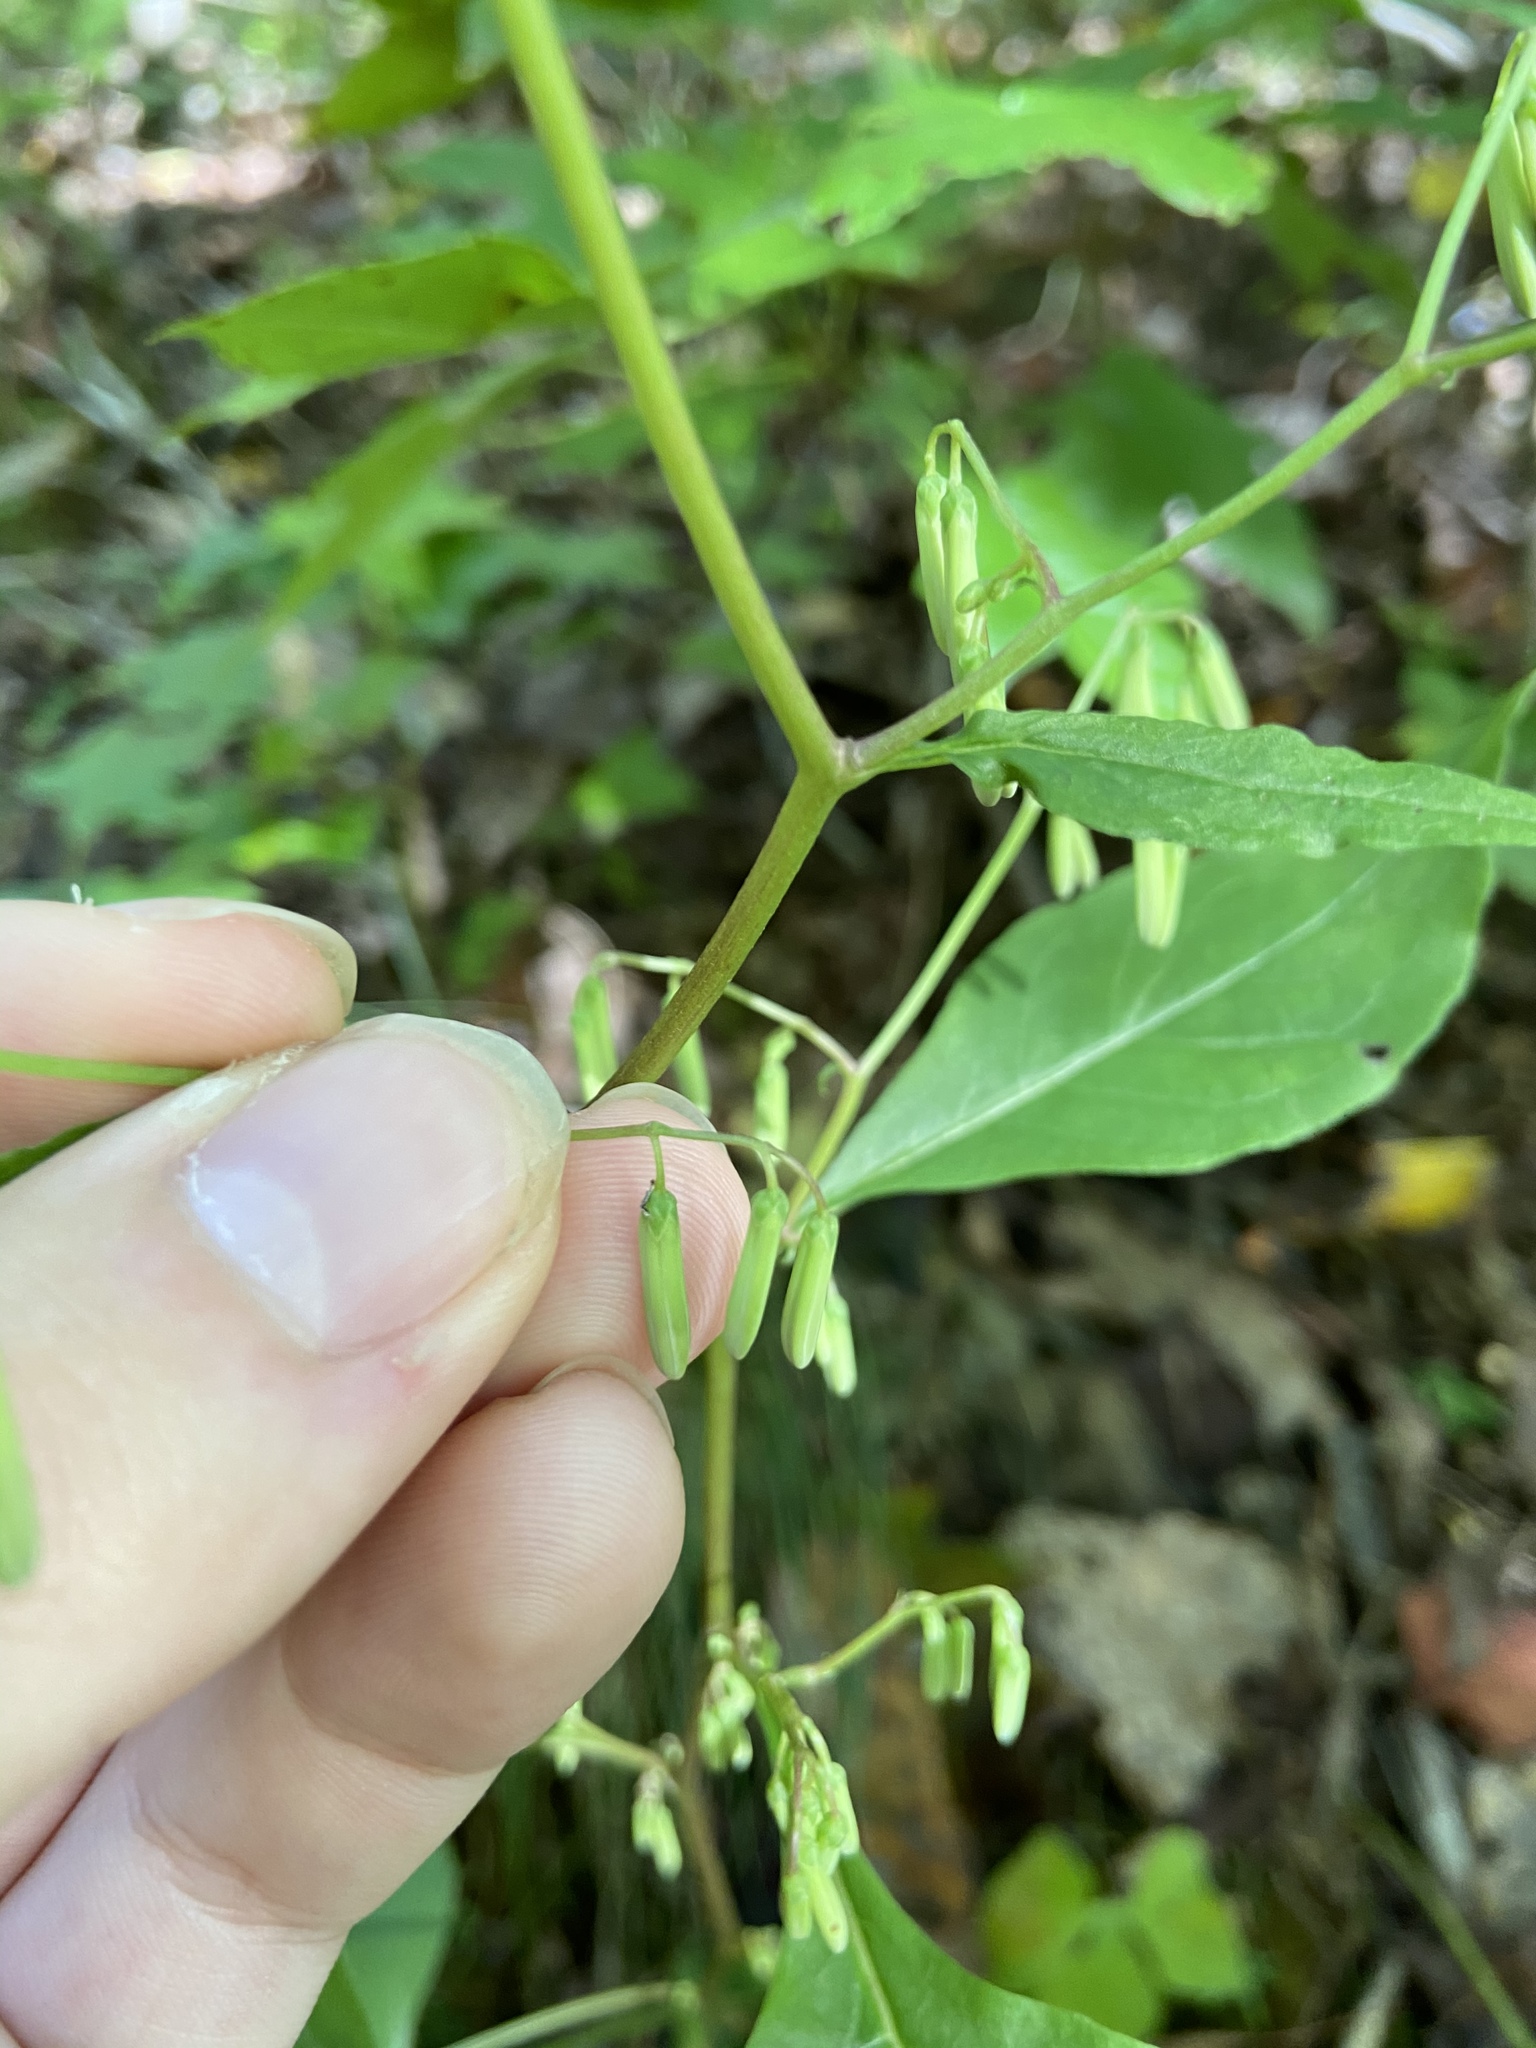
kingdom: Plantae
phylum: Tracheophyta
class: Magnoliopsida
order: Asterales
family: Asteraceae
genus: Nabalus
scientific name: Nabalus altissima
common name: Tall rattlesnakeroot
